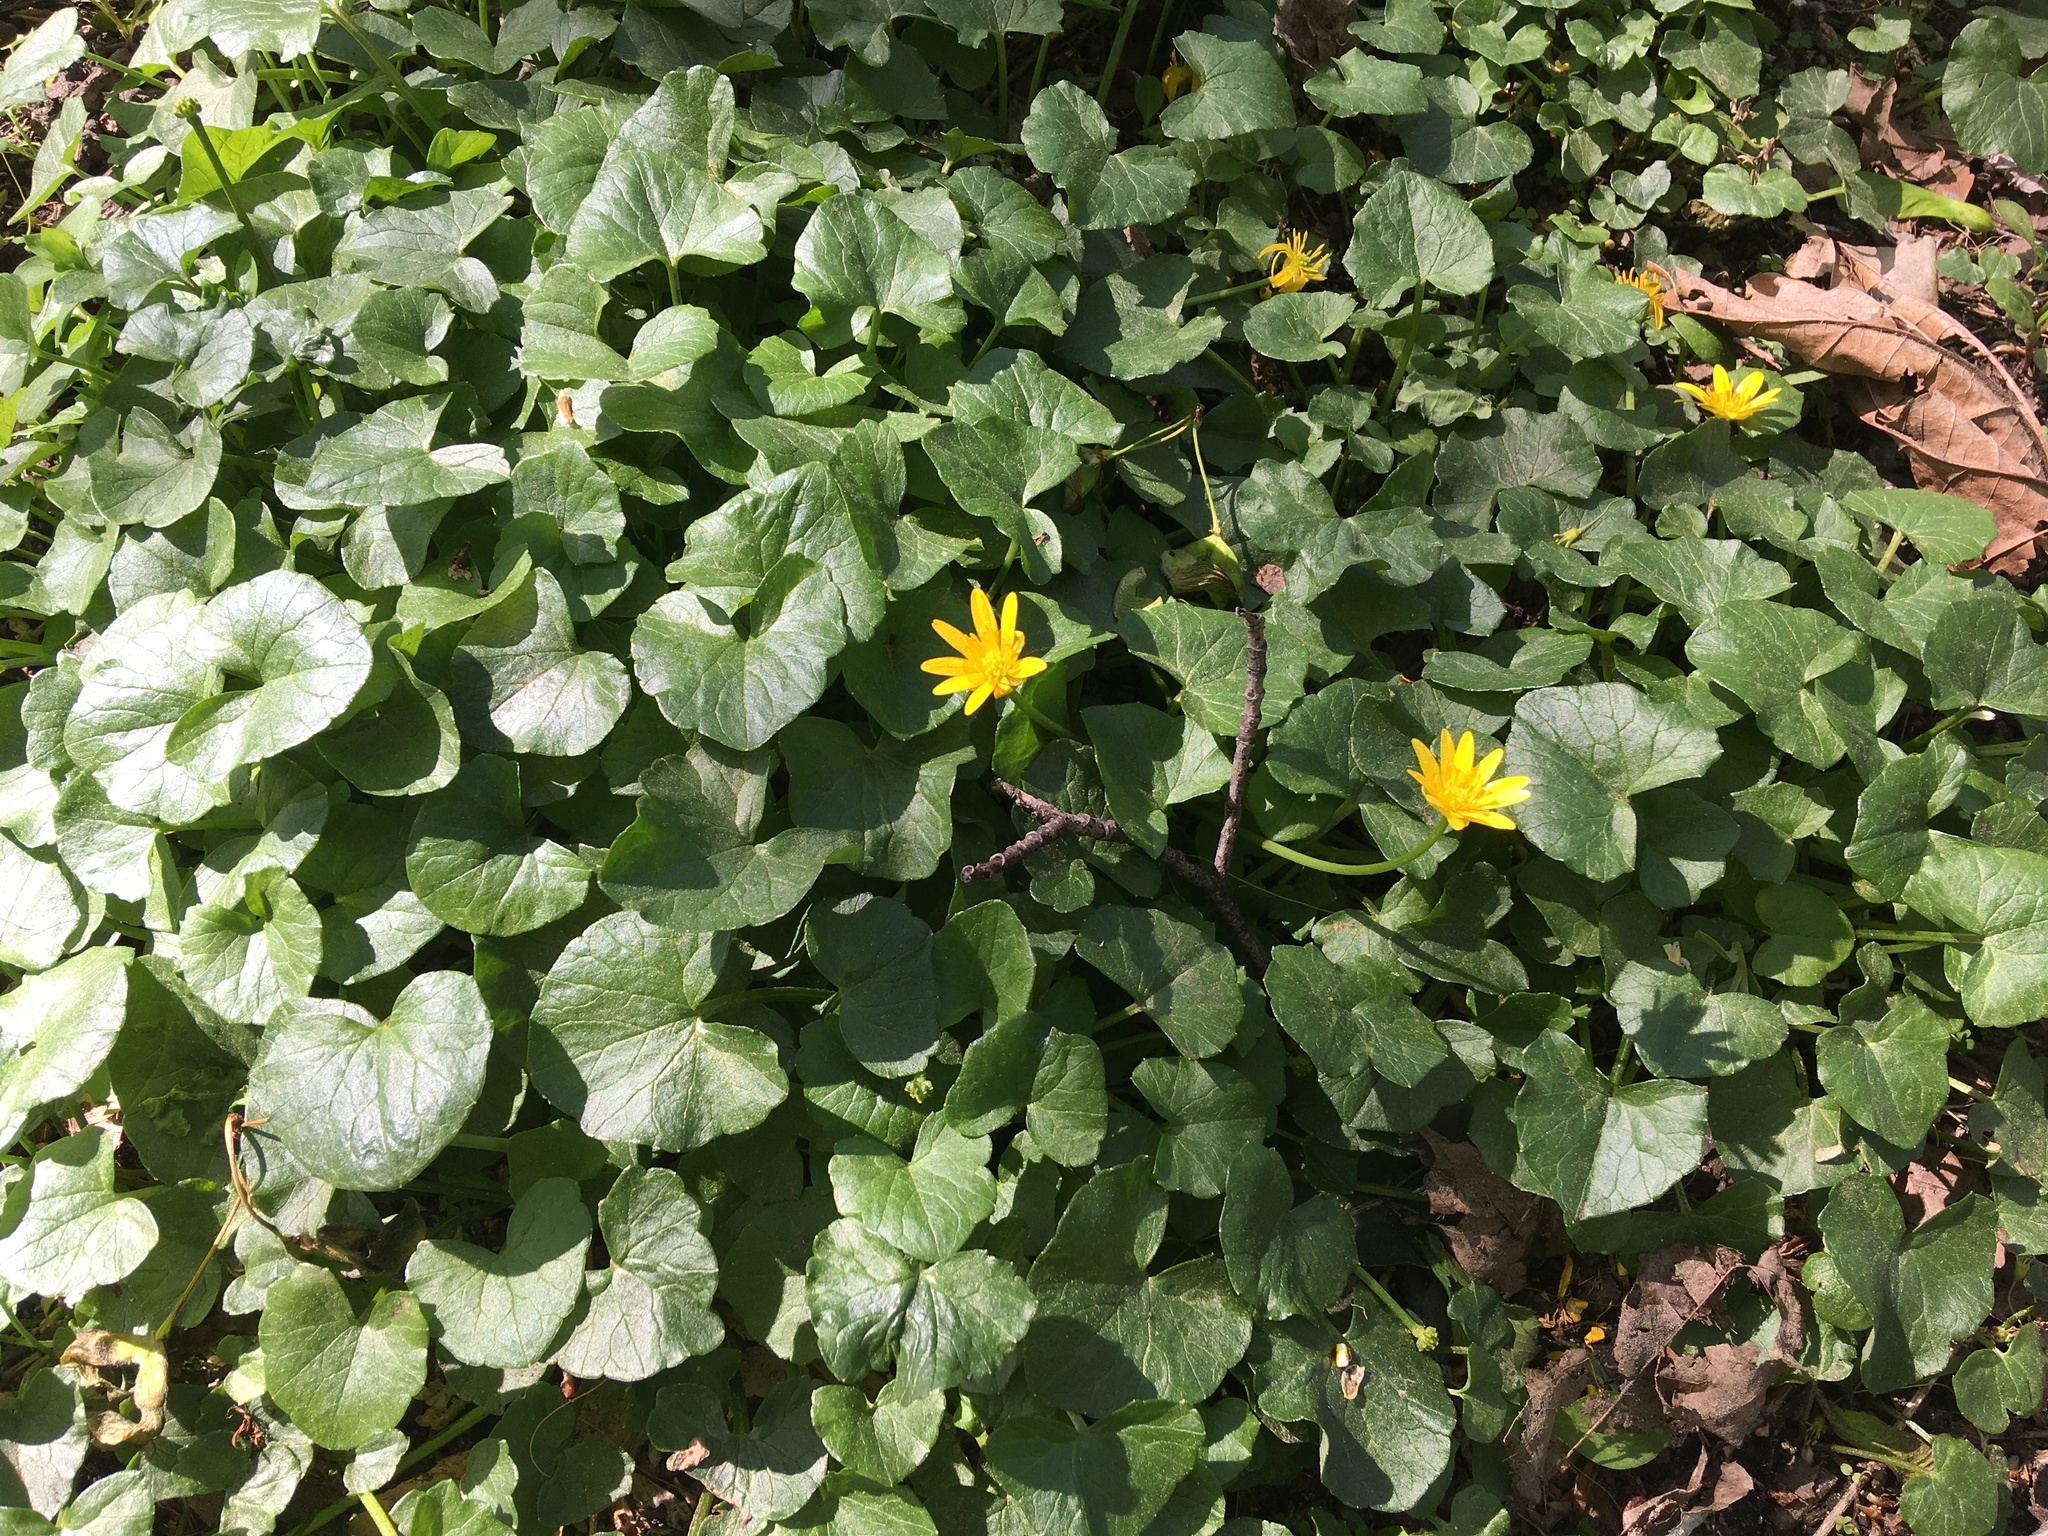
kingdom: Plantae
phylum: Tracheophyta
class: Magnoliopsida
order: Ranunculales
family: Ranunculaceae
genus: Ficaria
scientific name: Ficaria verna
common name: Lesser celandine
